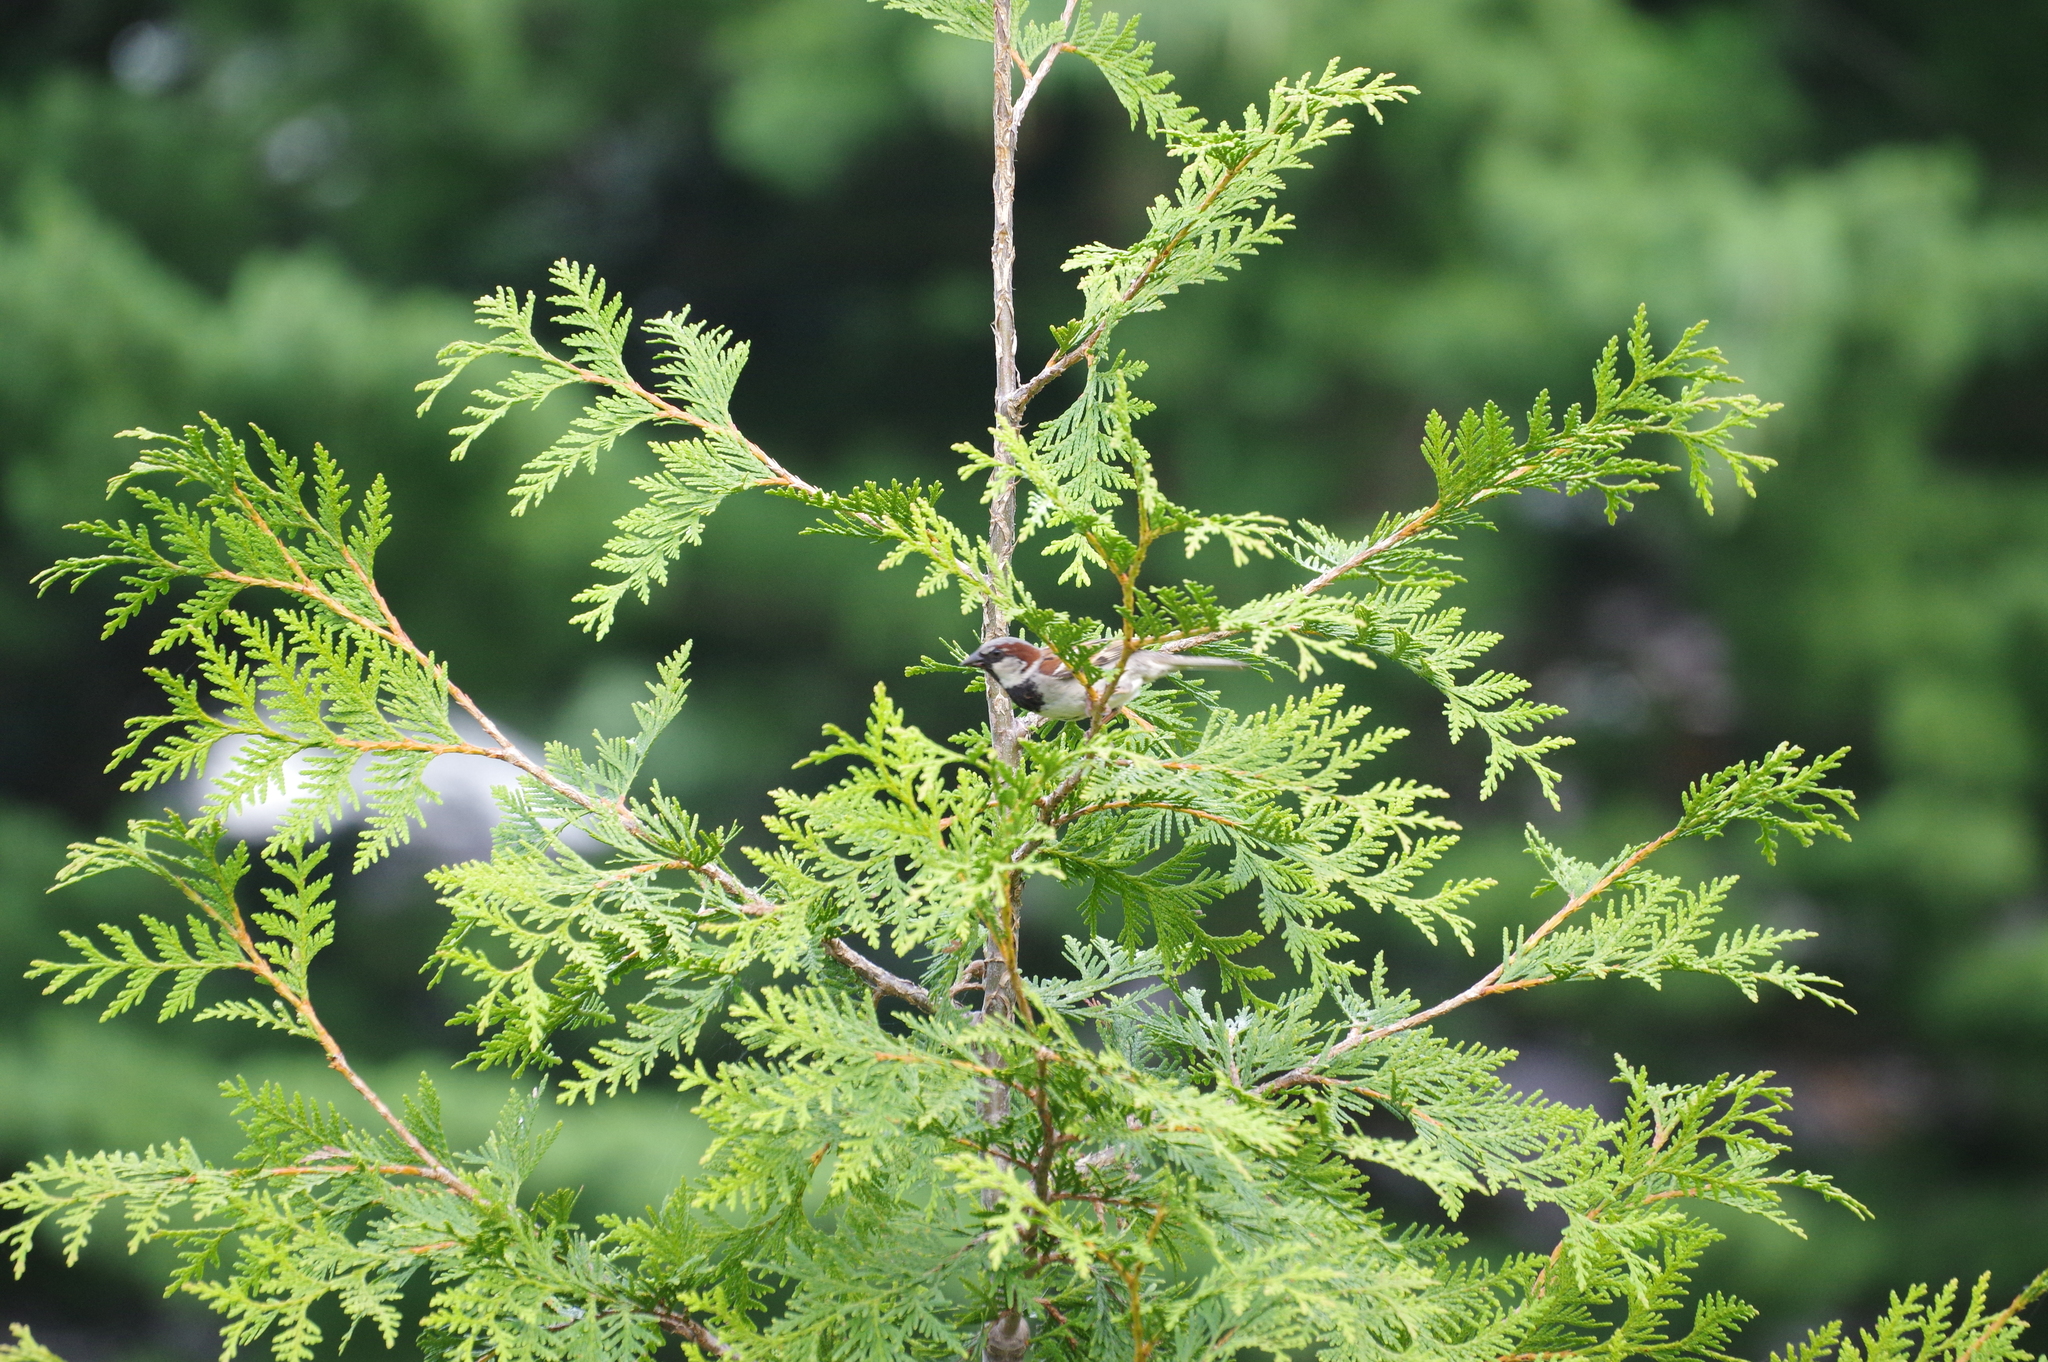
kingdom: Animalia
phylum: Chordata
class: Aves
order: Passeriformes
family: Passeridae
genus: Passer
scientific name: Passer domesticus
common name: House sparrow
